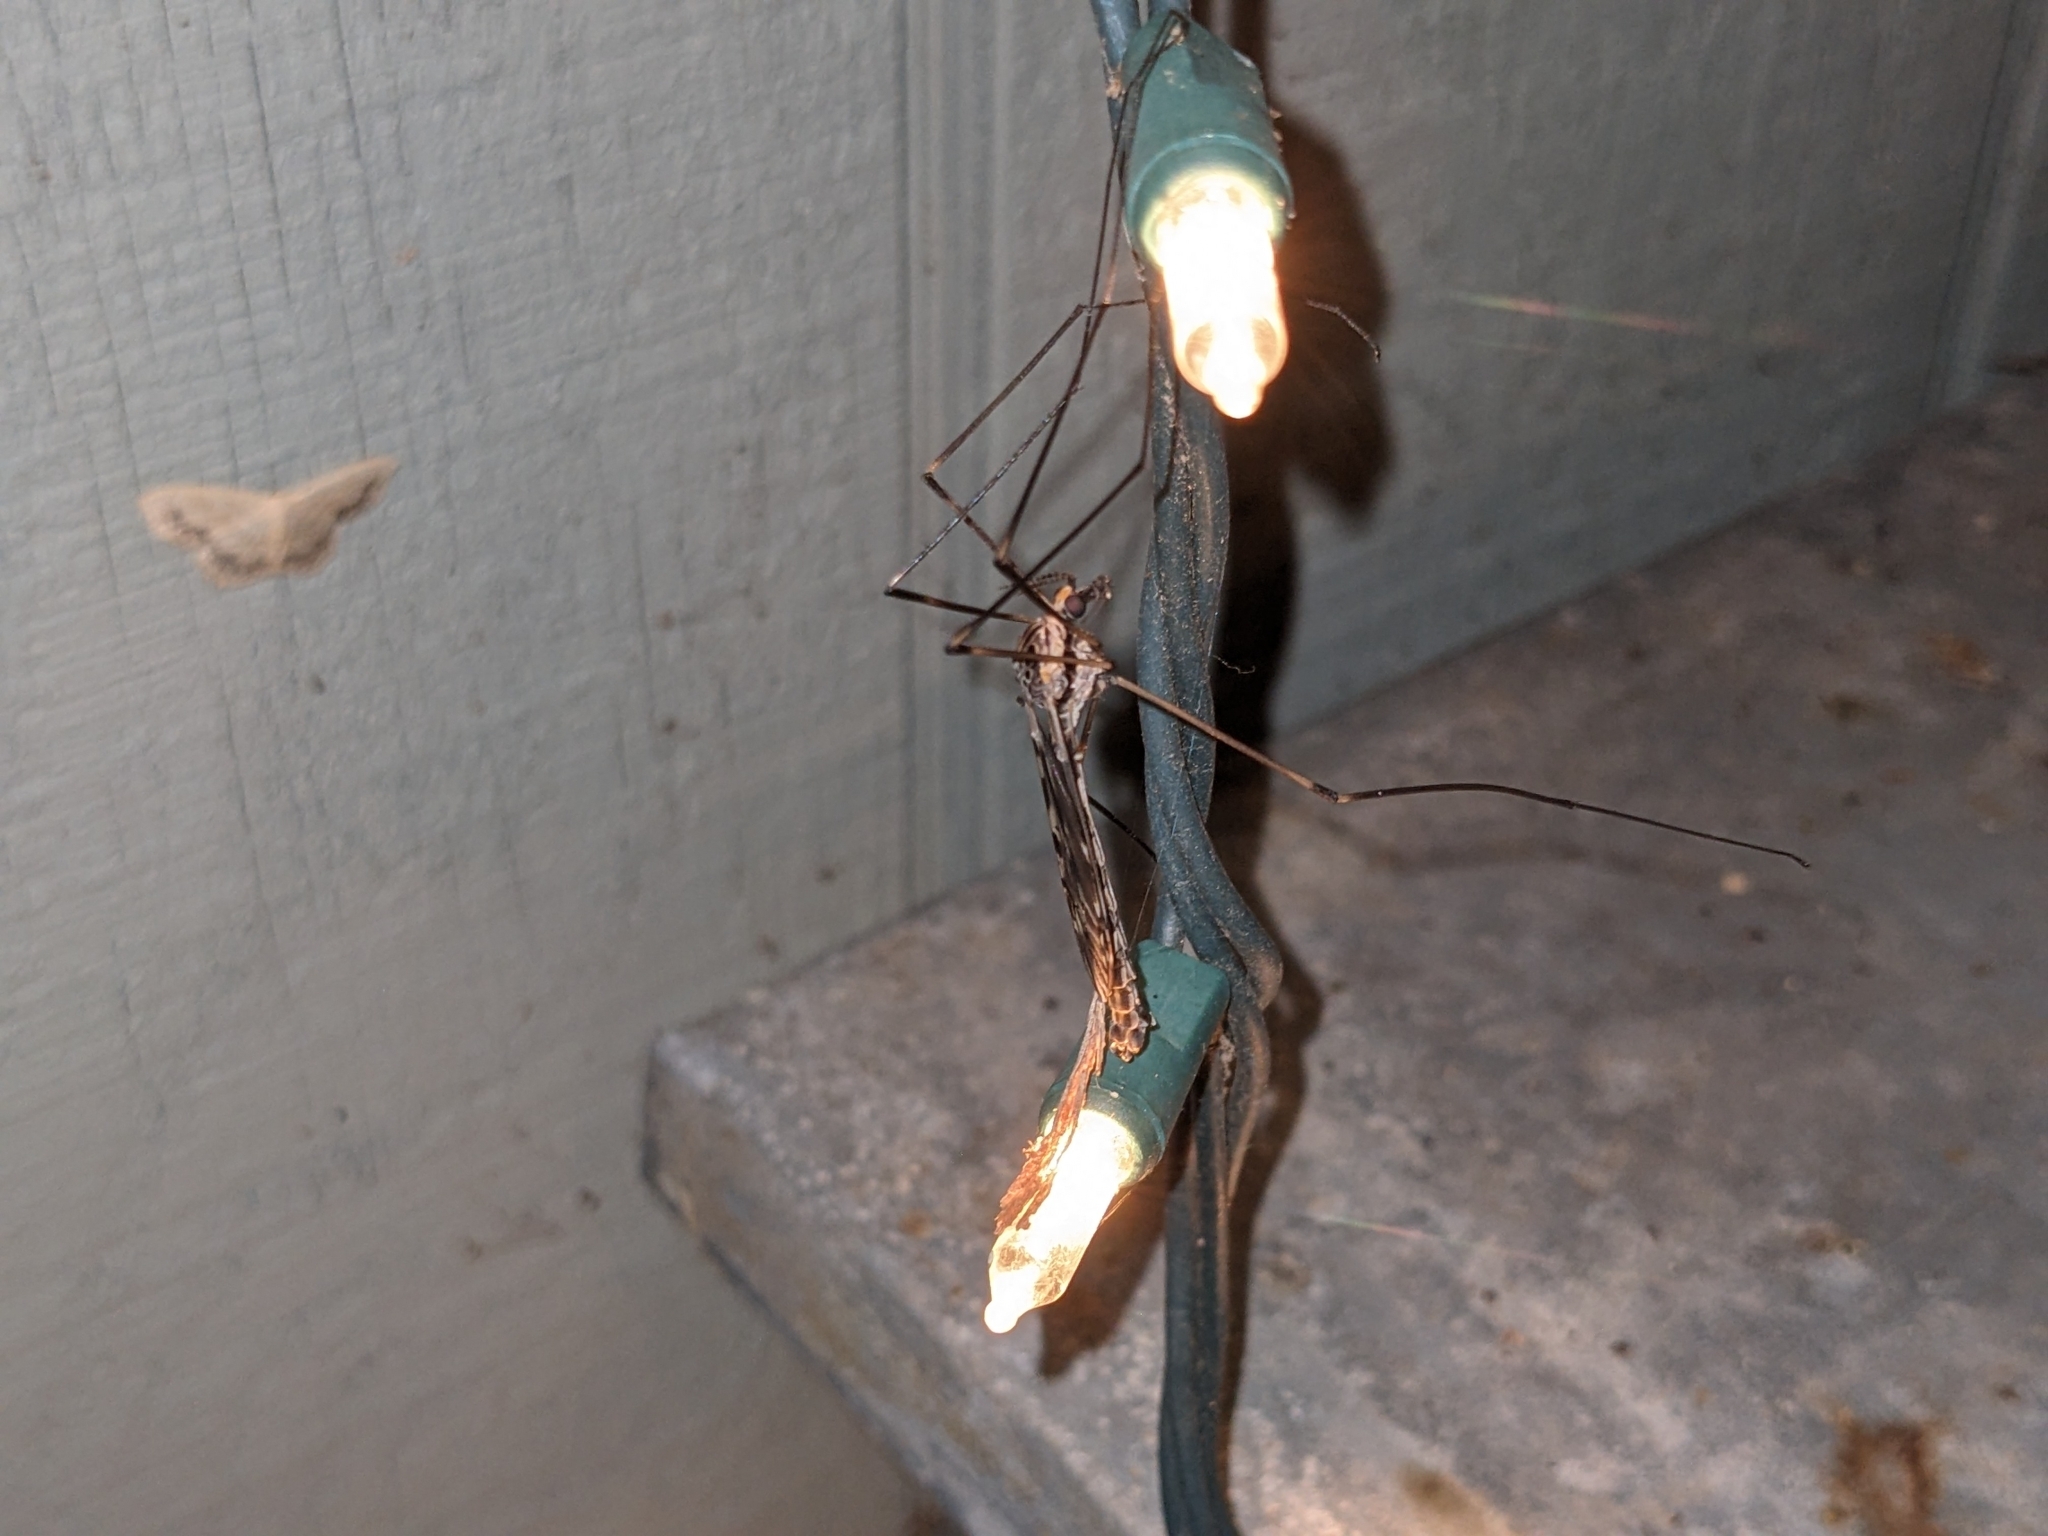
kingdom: Animalia
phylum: Arthropoda
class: Insecta
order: Diptera
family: Tipulidae
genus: Tipula
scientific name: Tipula abdominalis
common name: Giant crane fly
